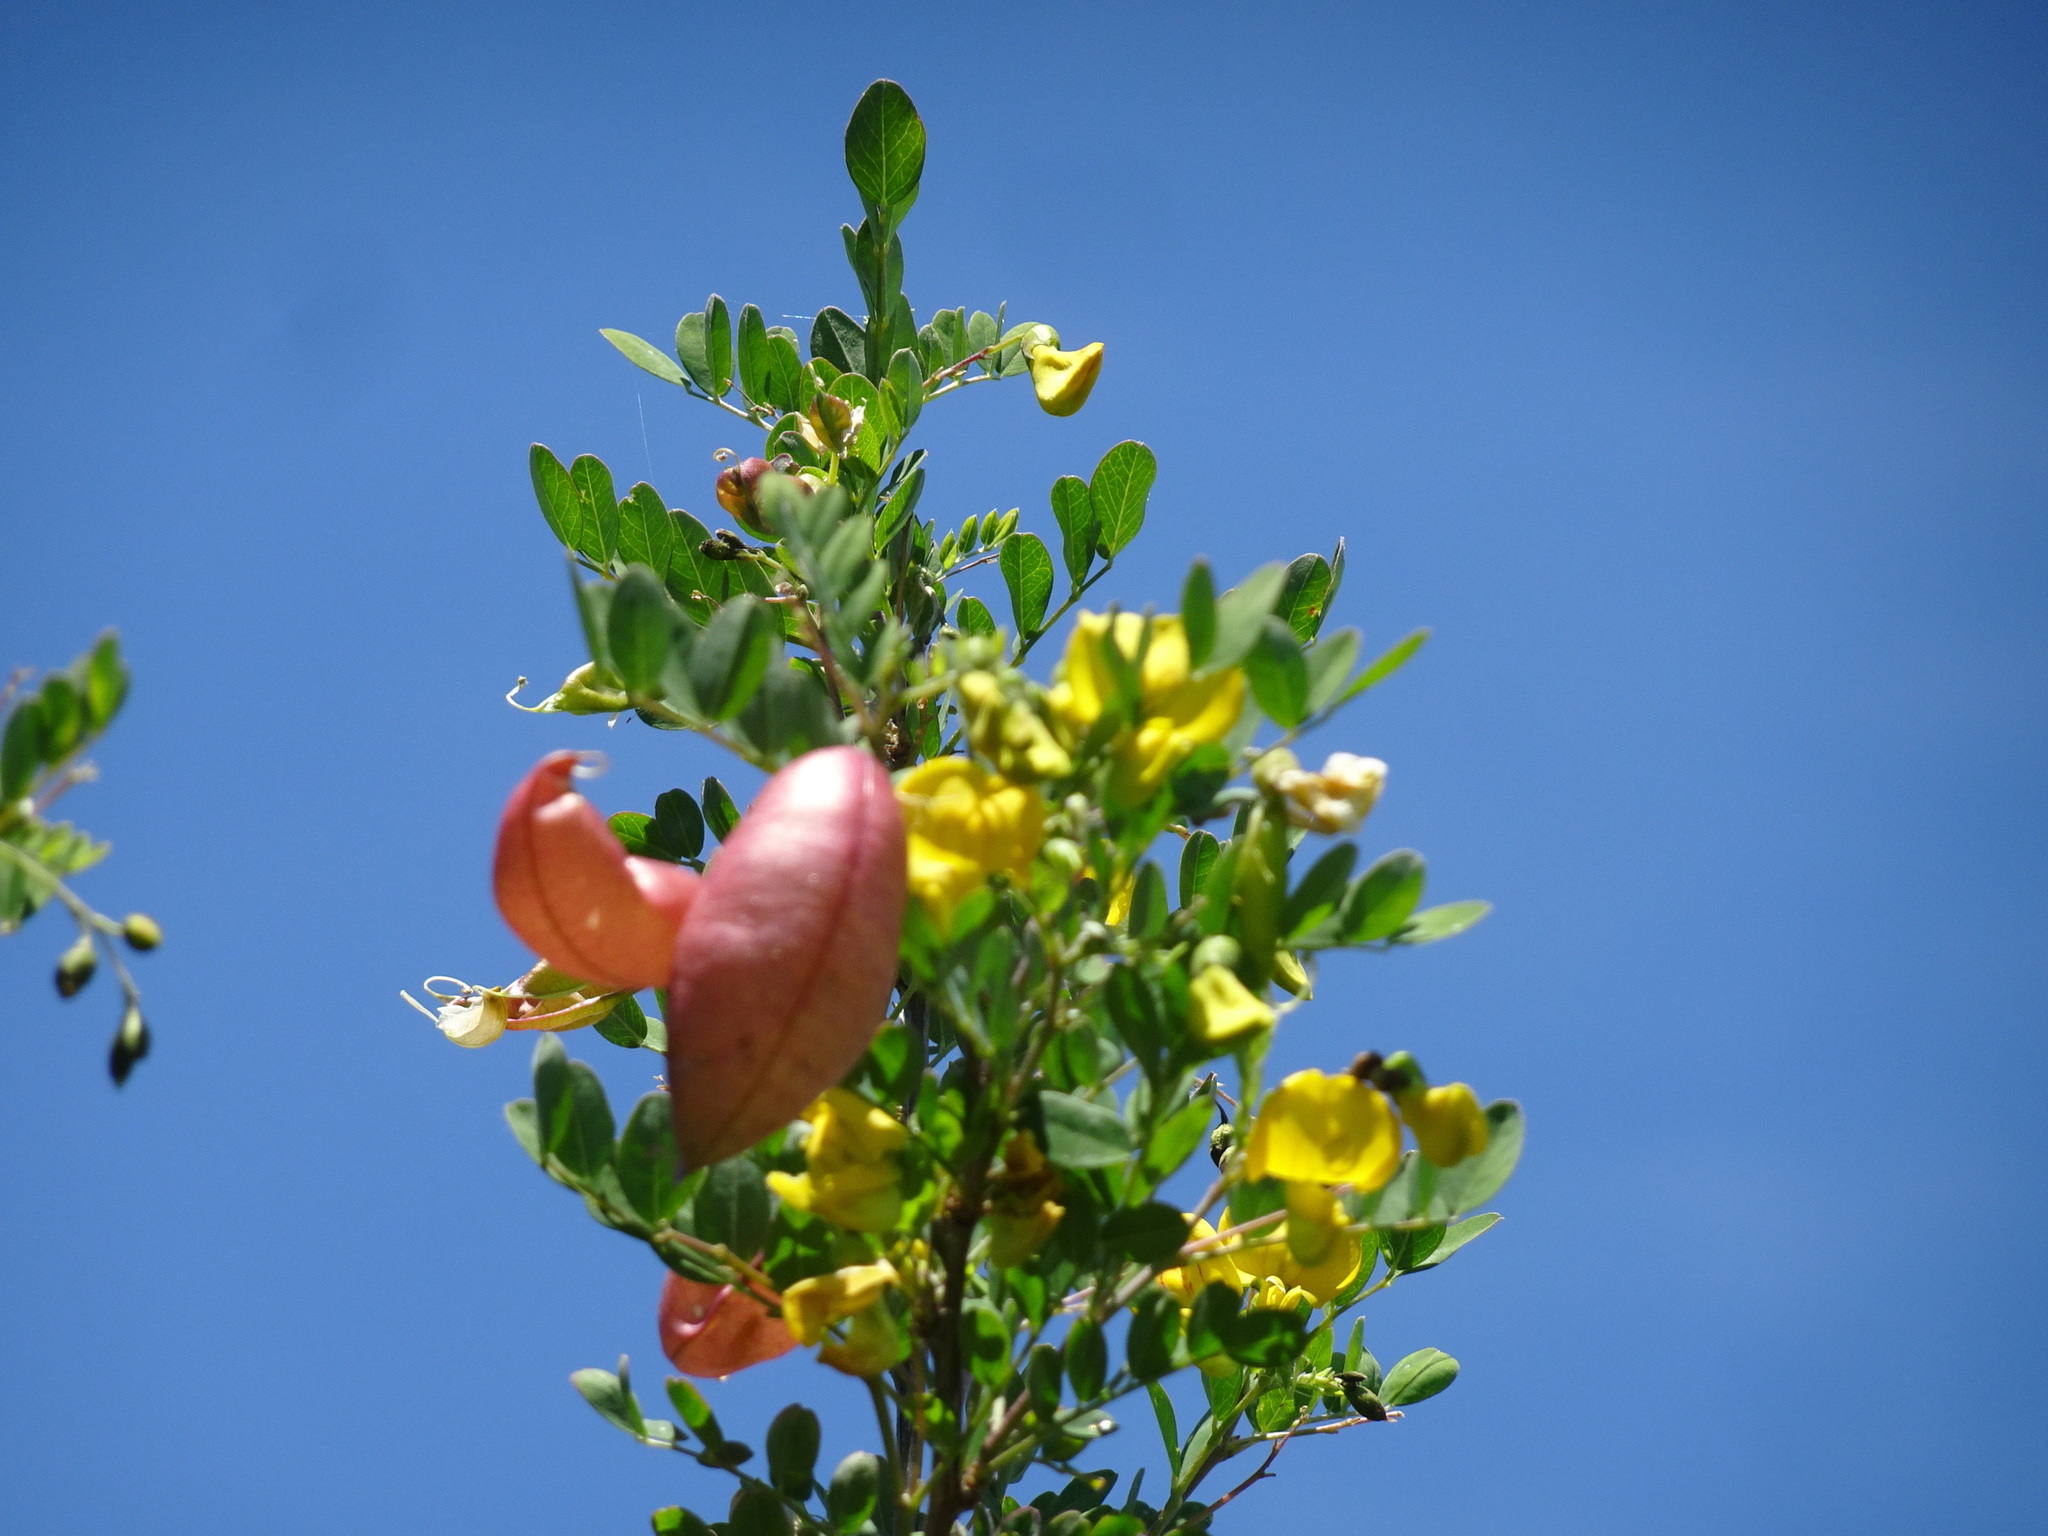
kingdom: Plantae
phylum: Tracheophyta
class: Magnoliopsida
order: Fabales
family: Fabaceae
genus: Colutea
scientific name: Colutea media
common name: Orange bladder-senna
